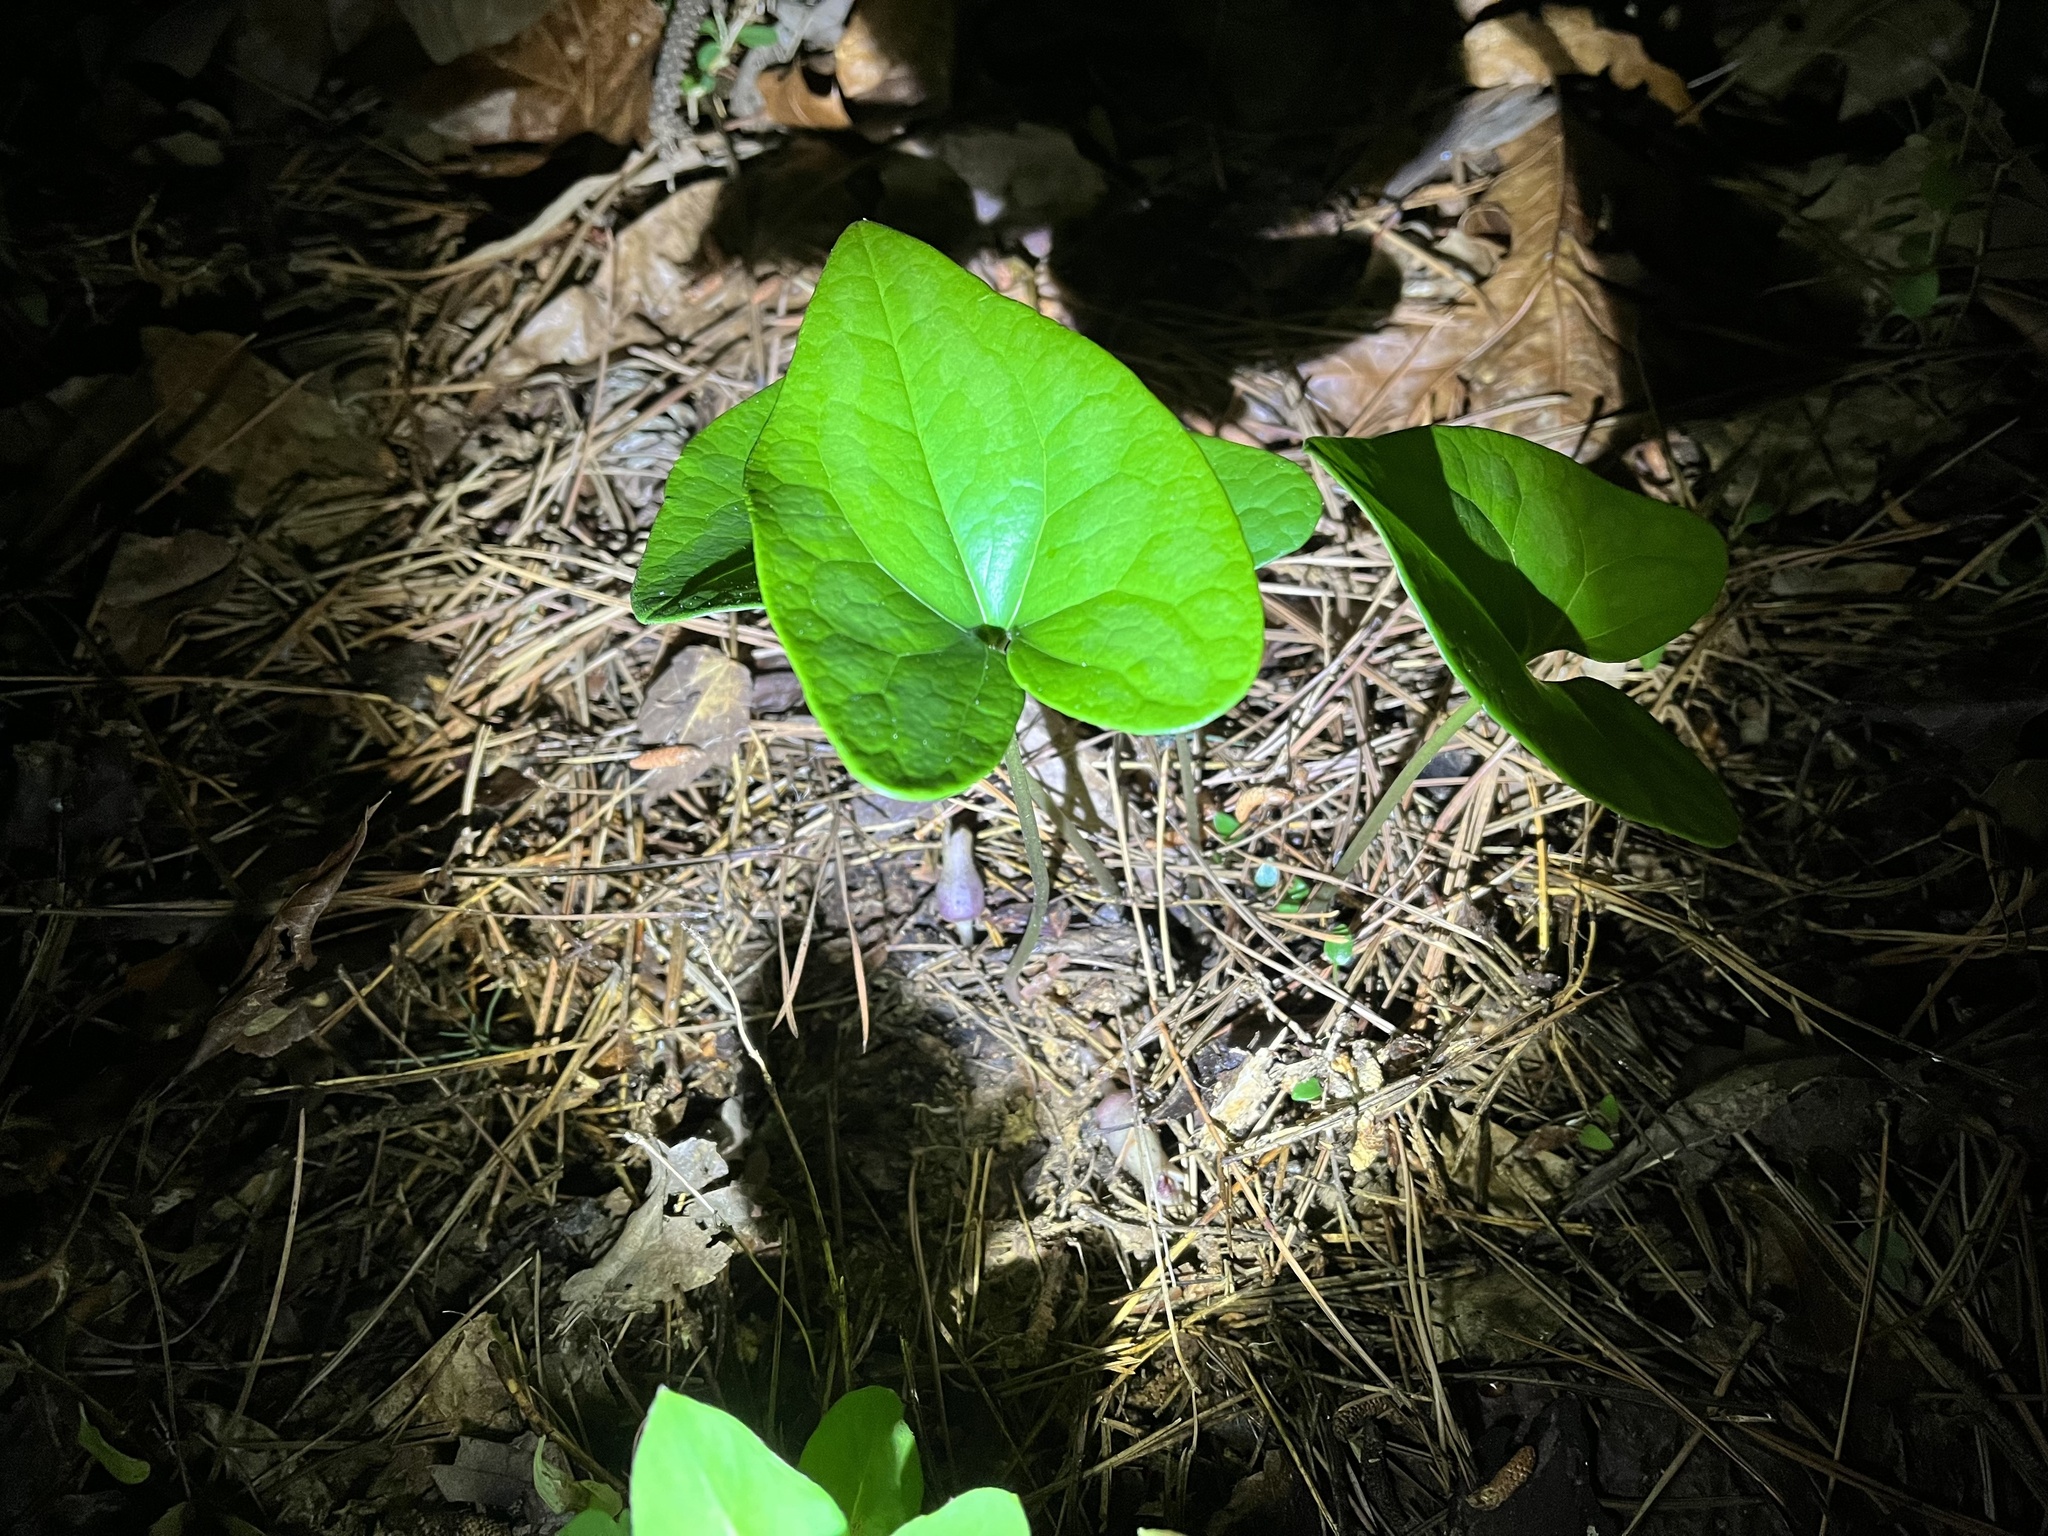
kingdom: Plantae
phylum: Tracheophyta
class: Magnoliopsida
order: Piperales
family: Aristolochiaceae
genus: Hexastylis
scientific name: Hexastylis arifolia
